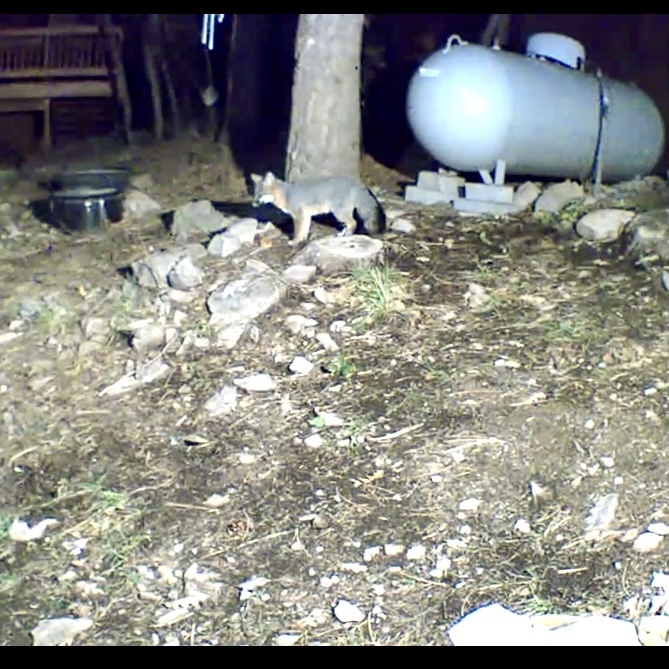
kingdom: Animalia
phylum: Chordata
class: Mammalia
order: Carnivora
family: Canidae
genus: Urocyon
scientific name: Urocyon cinereoargenteus
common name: Gray fox
